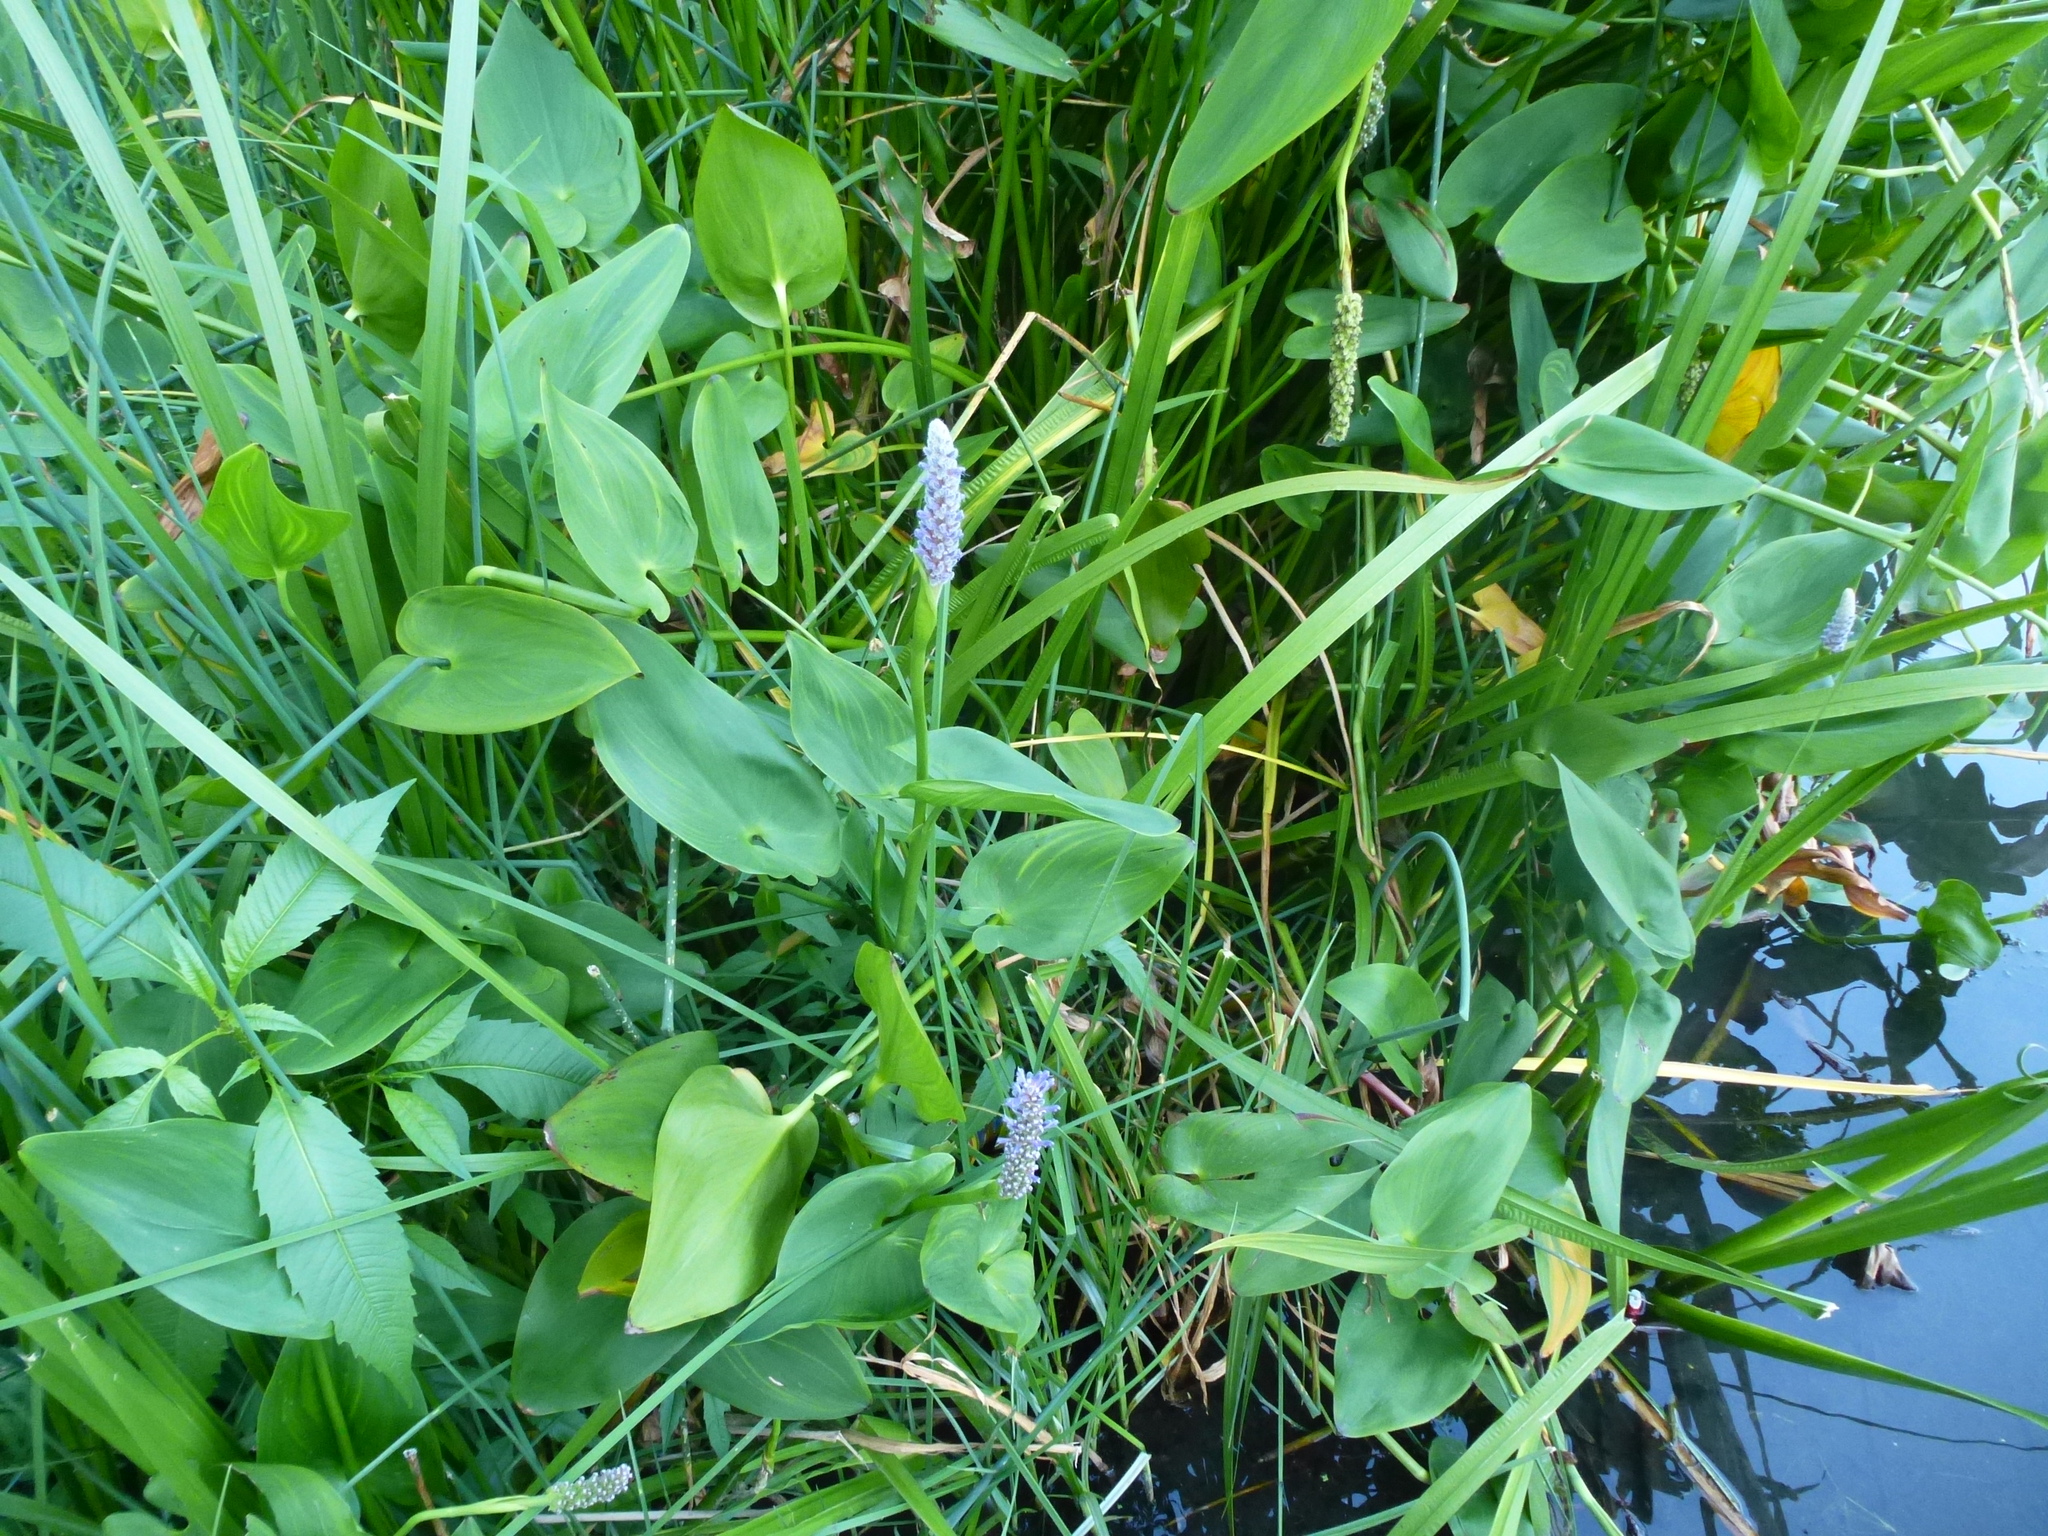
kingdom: Plantae
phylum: Tracheophyta
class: Liliopsida
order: Commelinales
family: Pontederiaceae
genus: Pontederia
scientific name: Pontederia cordata
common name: Pickerelweed
